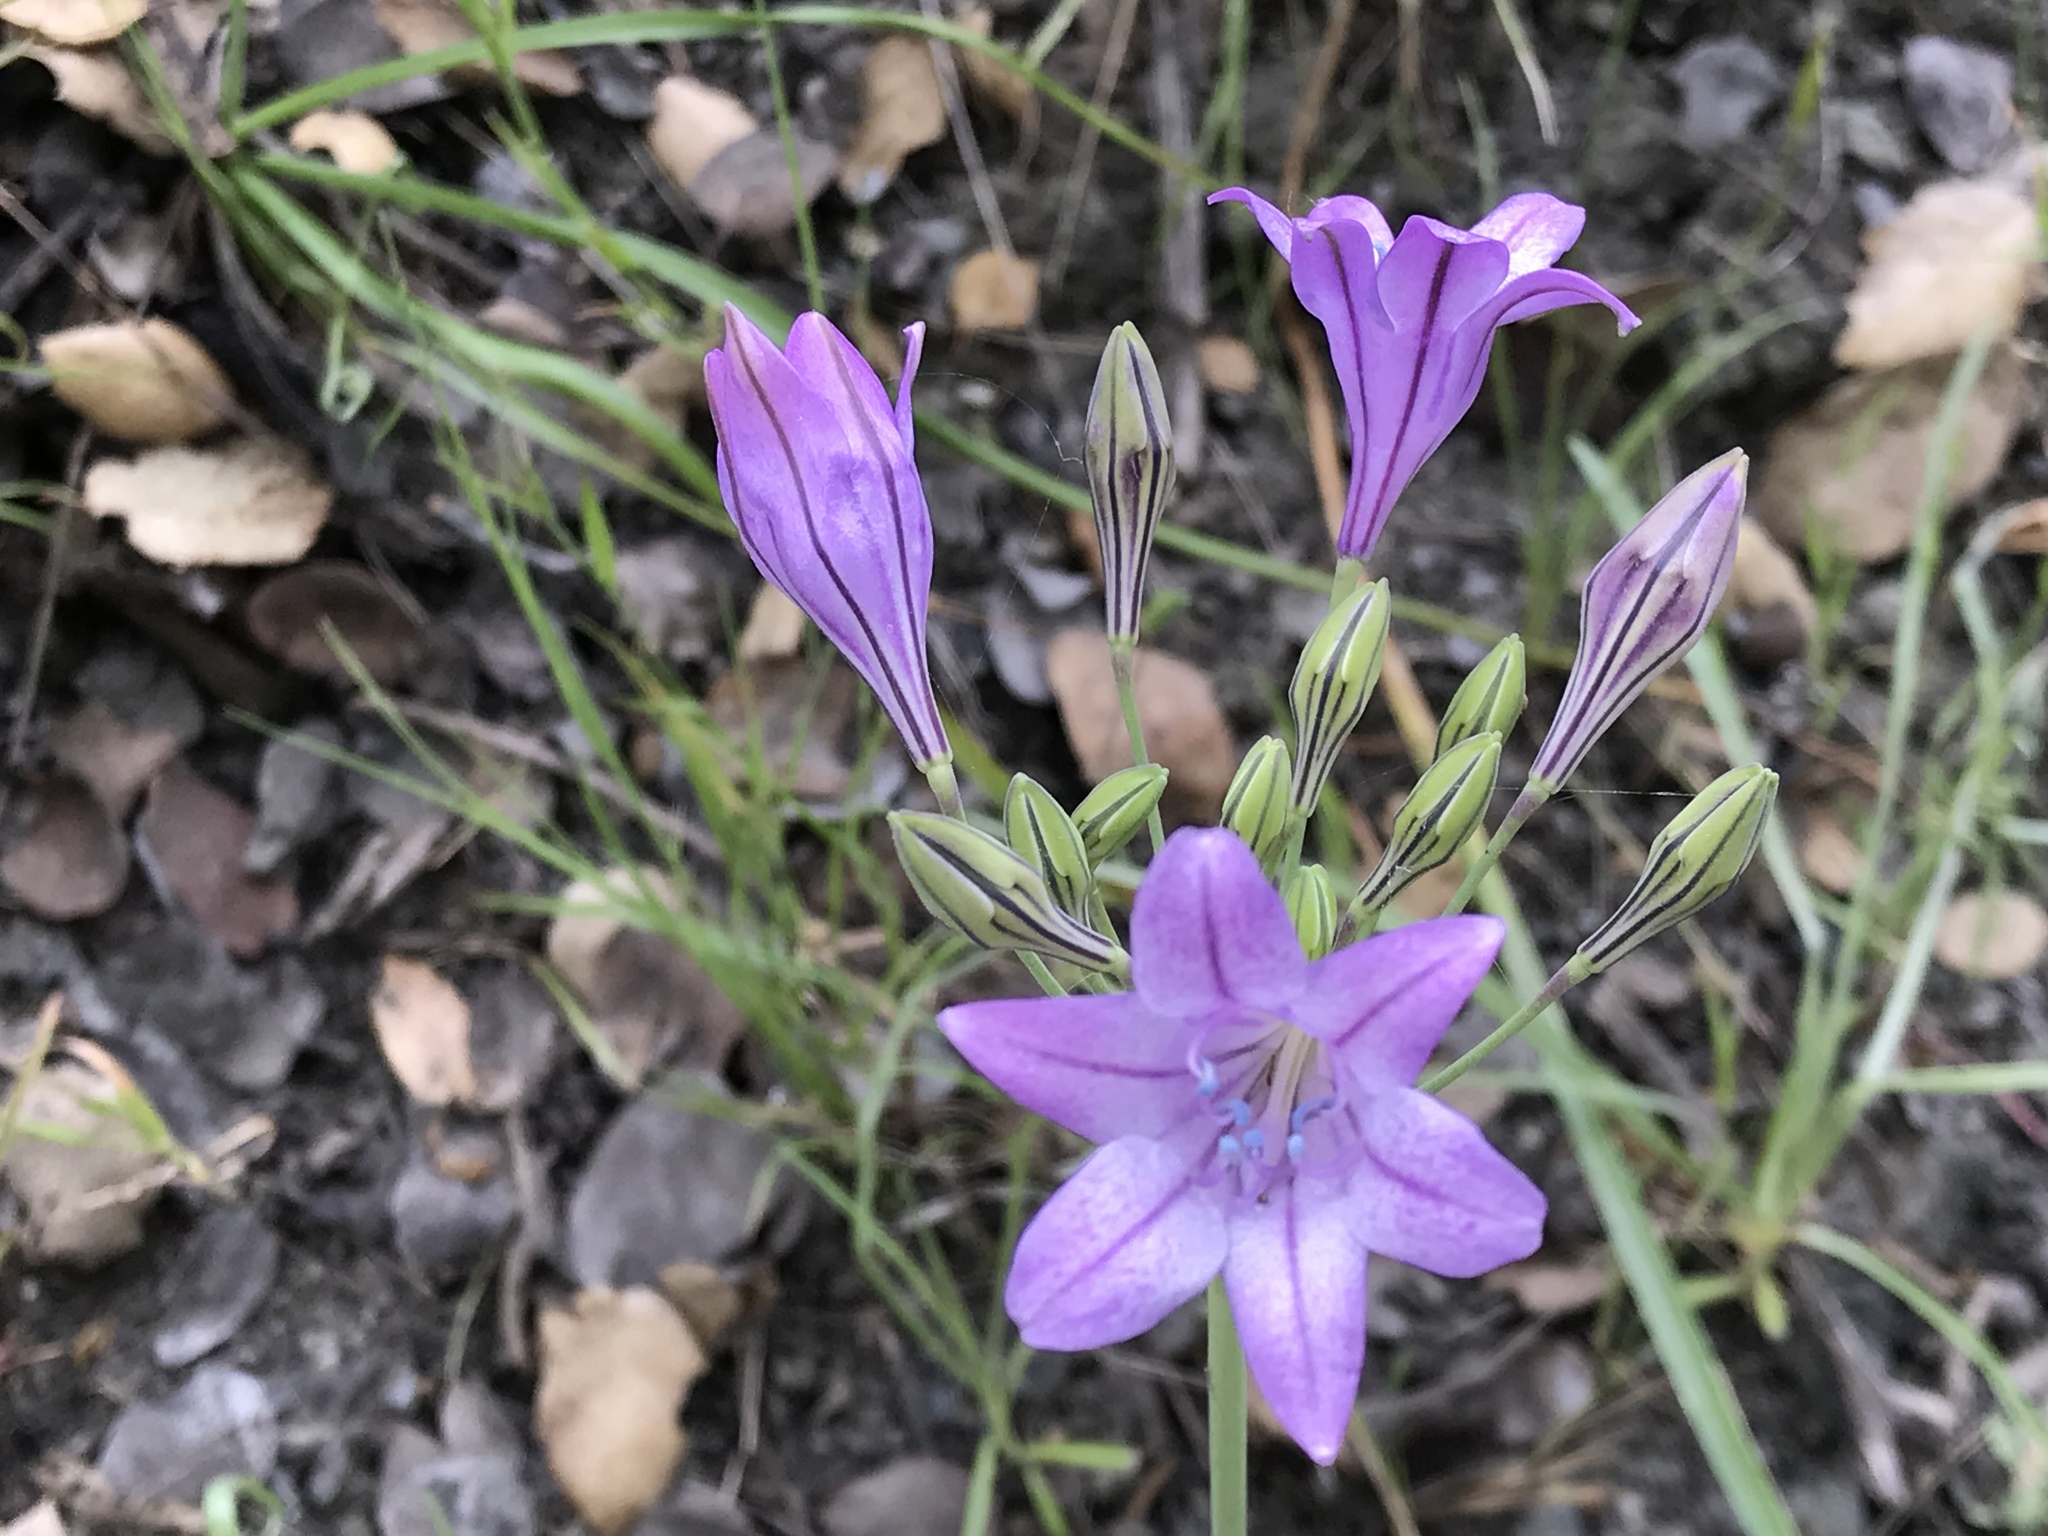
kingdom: Plantae
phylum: Tracheophyta
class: Liliopsida
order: Asparagales
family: Asparagaceae
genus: Triteleia
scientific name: Triteleia laxa
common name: Triplet-lily
